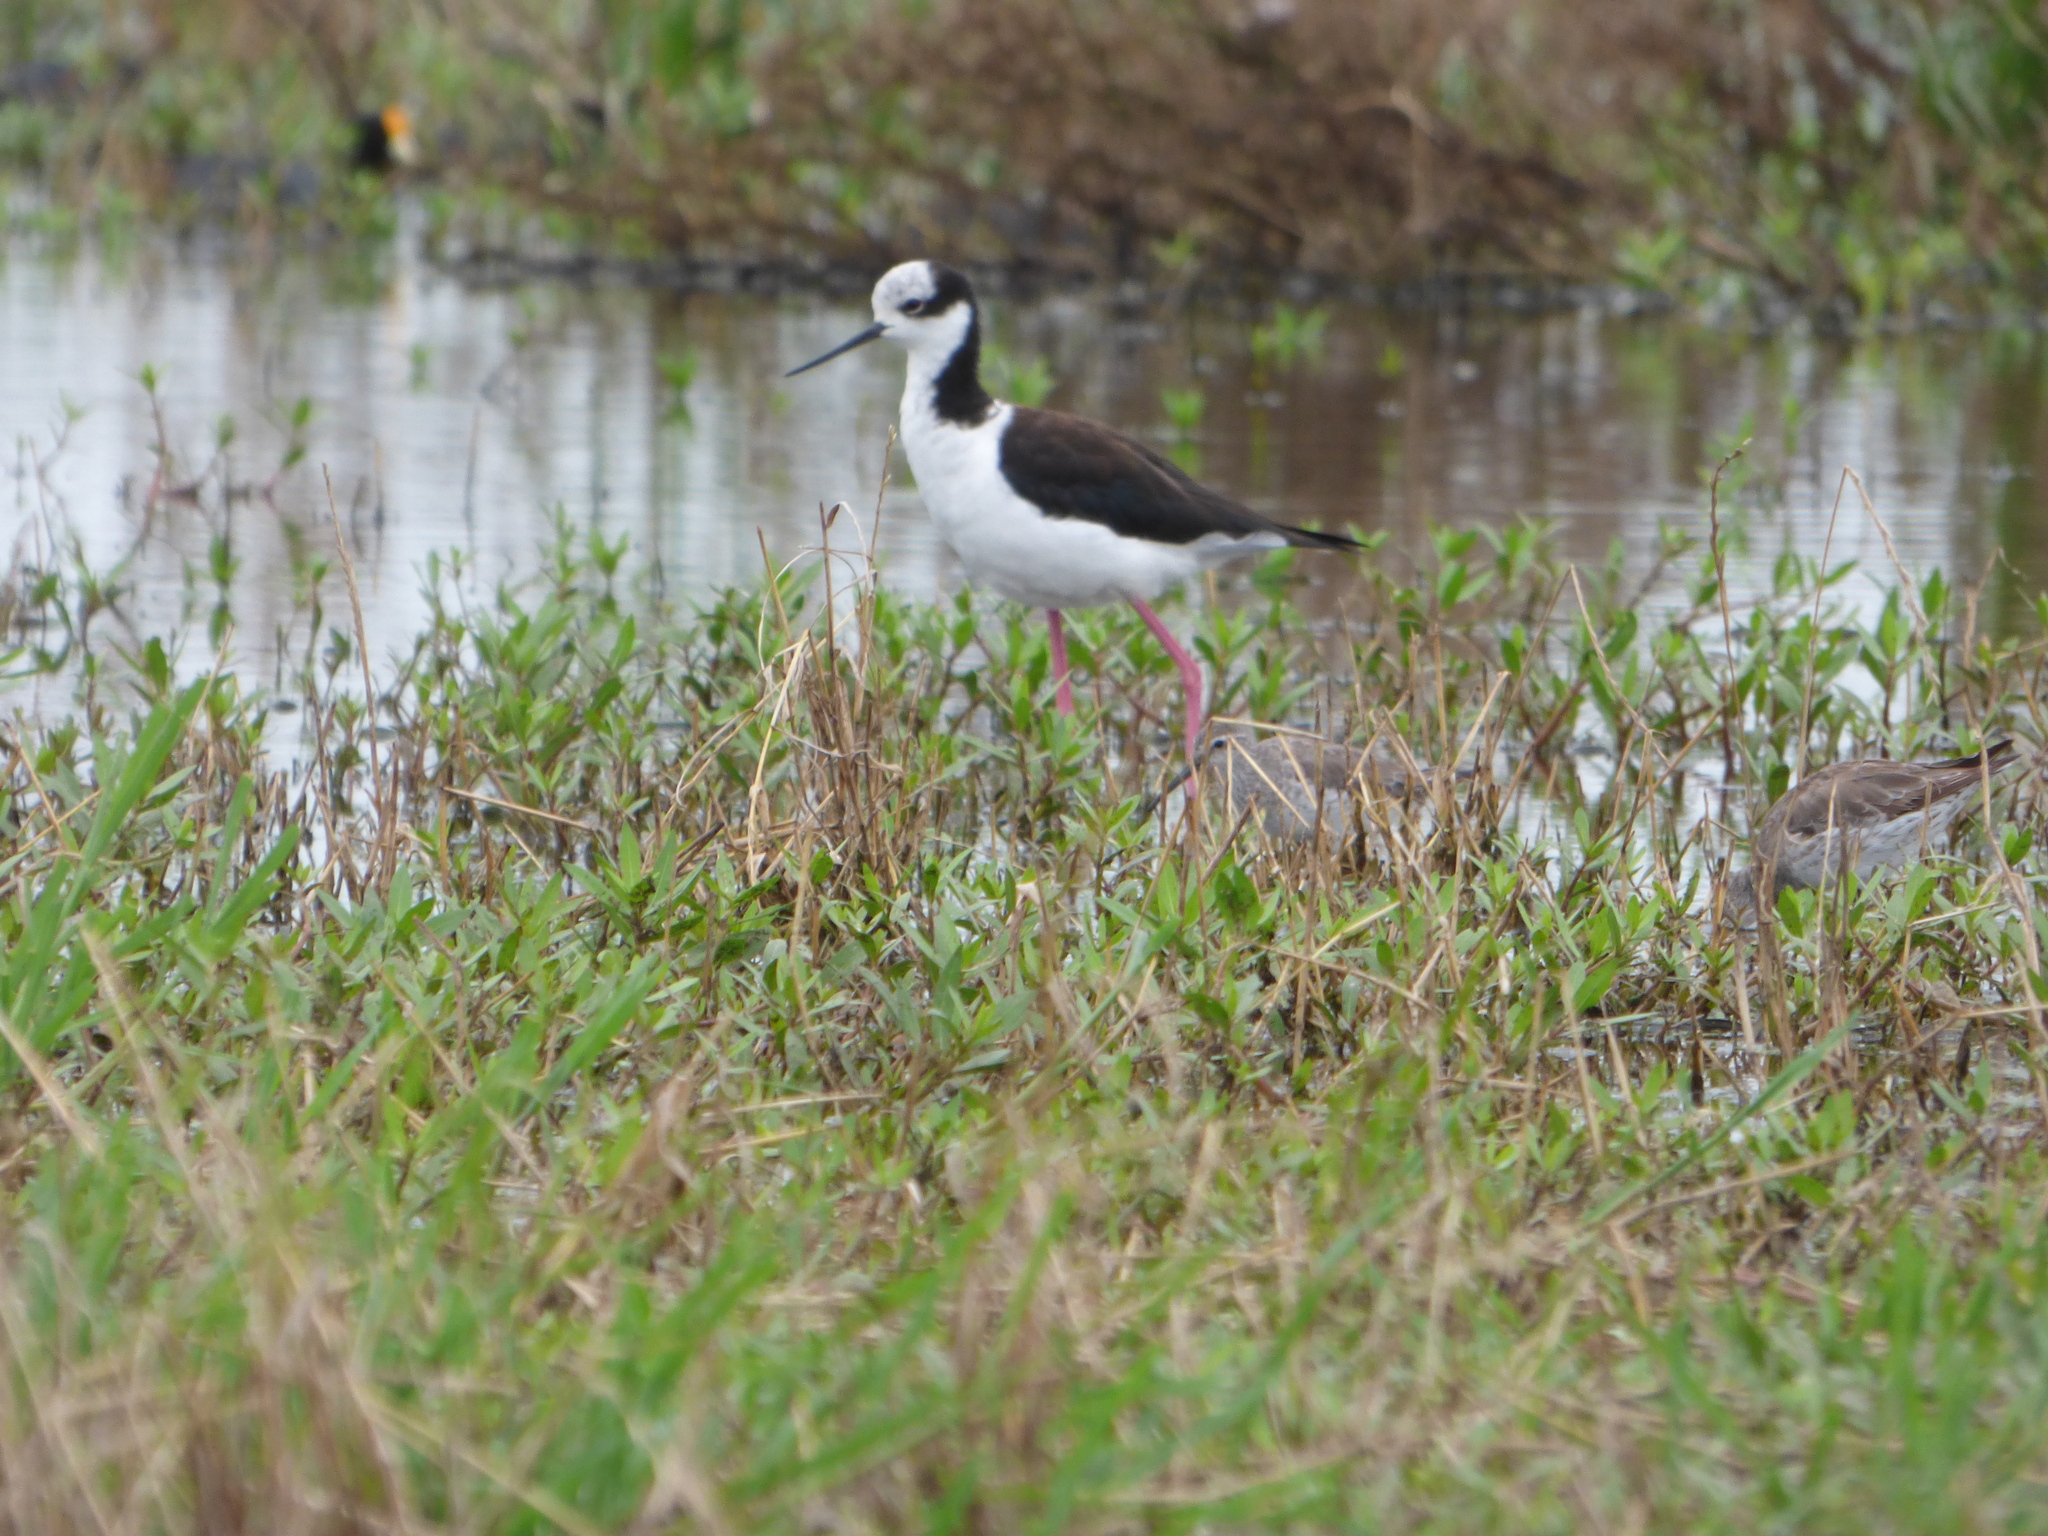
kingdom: Animalia
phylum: Chordata
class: Aves
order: Charadriiformes
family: Recurvirostridae
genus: Himantopus
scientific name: Himantopus mexicanus
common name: Black-necked stilt
